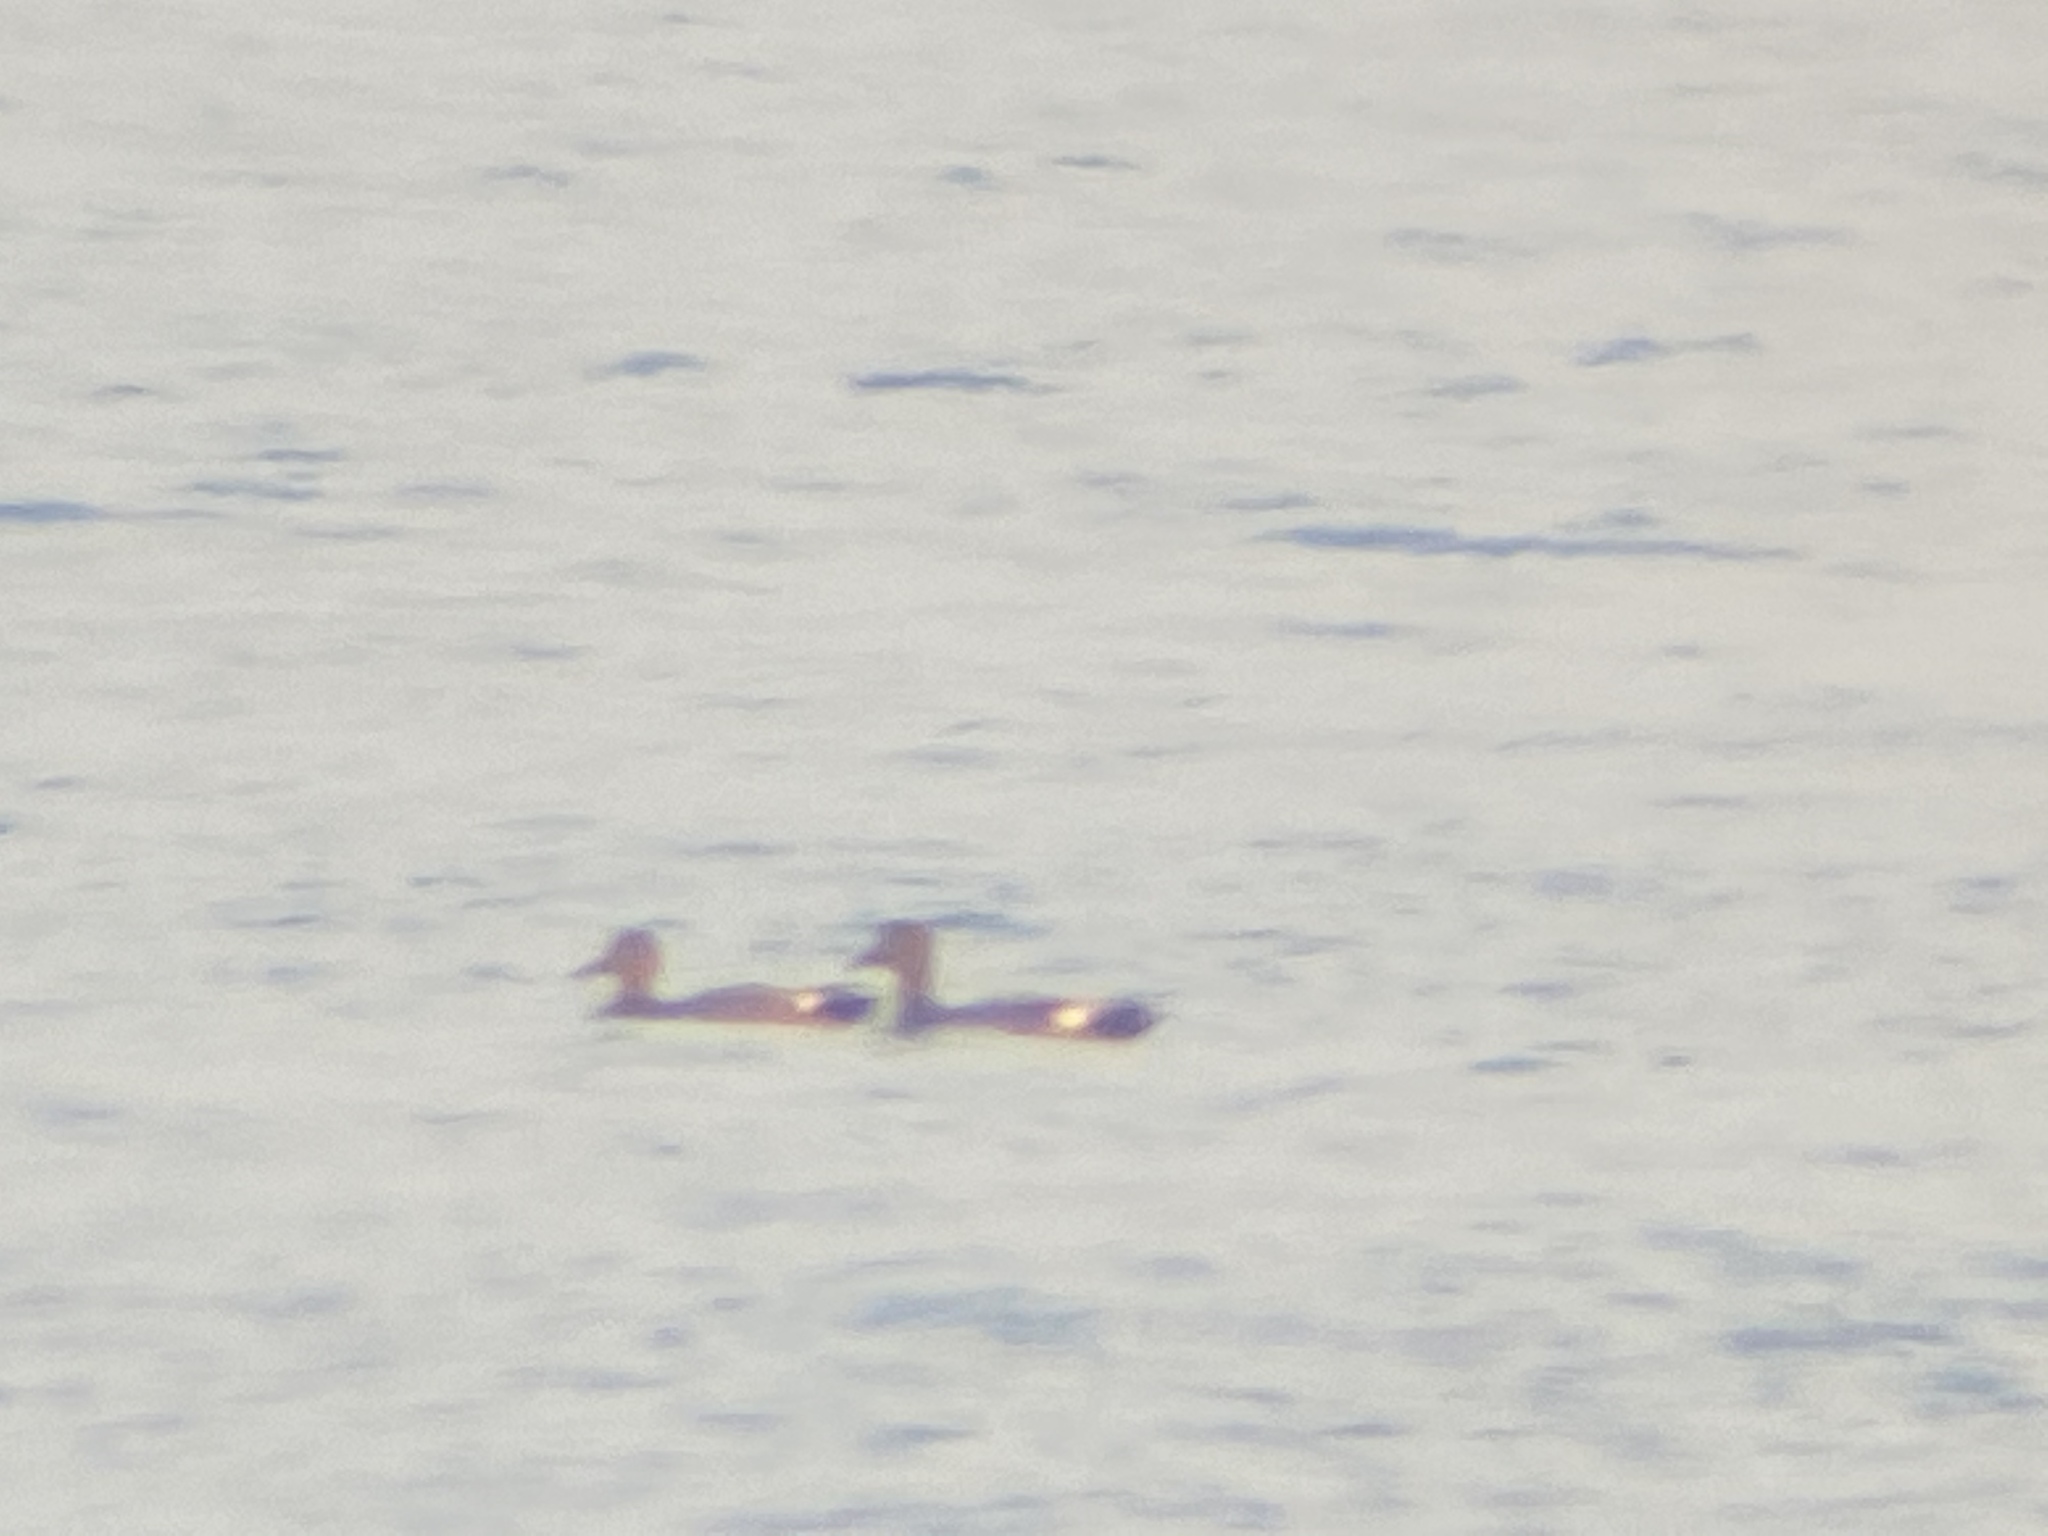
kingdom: Animalia
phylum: Chordata
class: Aves
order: Anseriformes
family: Anatidae
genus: Mareca
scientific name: Mareca strepera
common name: Gadwall
